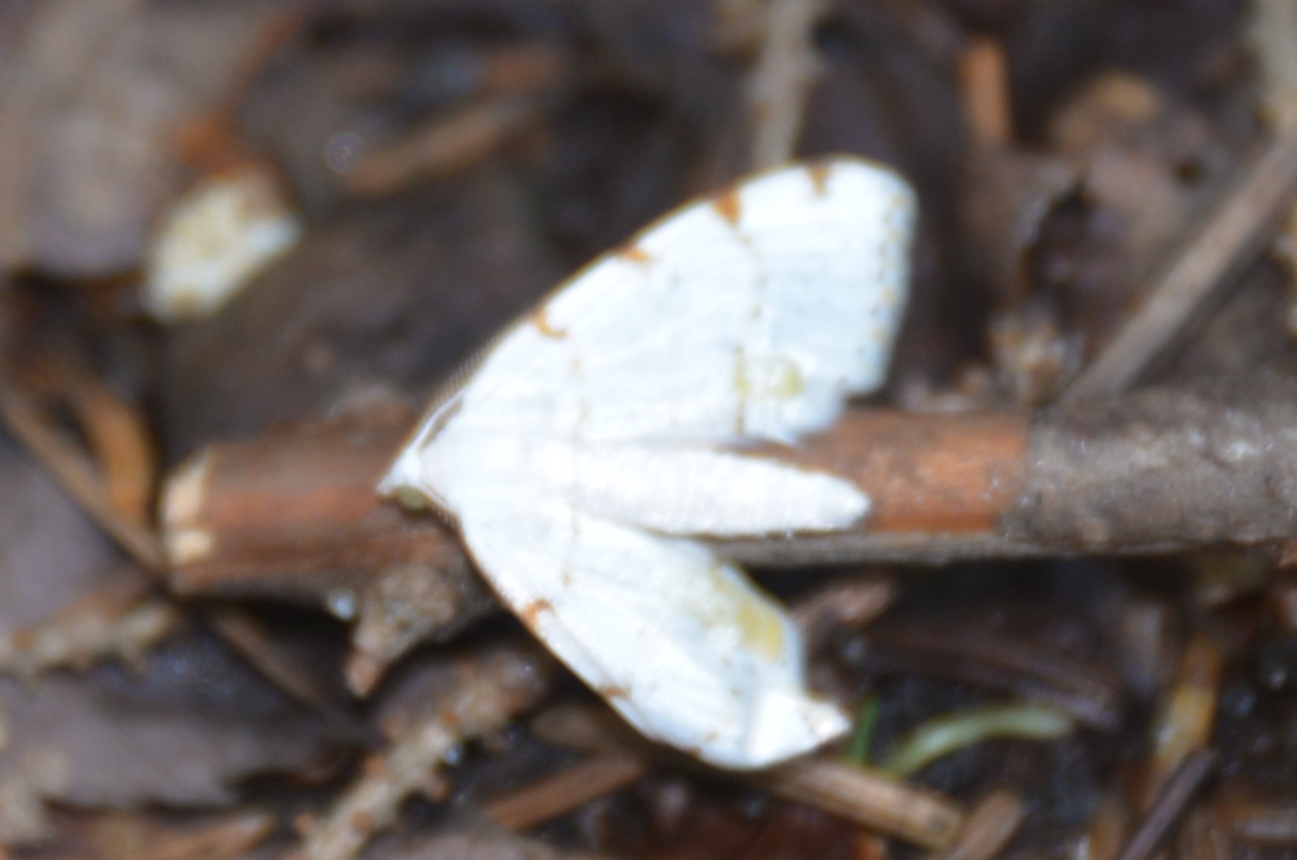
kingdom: Animalia
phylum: Arthropoda
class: Insecta
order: Lepidoptera
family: Geometridae
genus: Macaria
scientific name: Macaria pustularia
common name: Lesser maple spanworm moth
